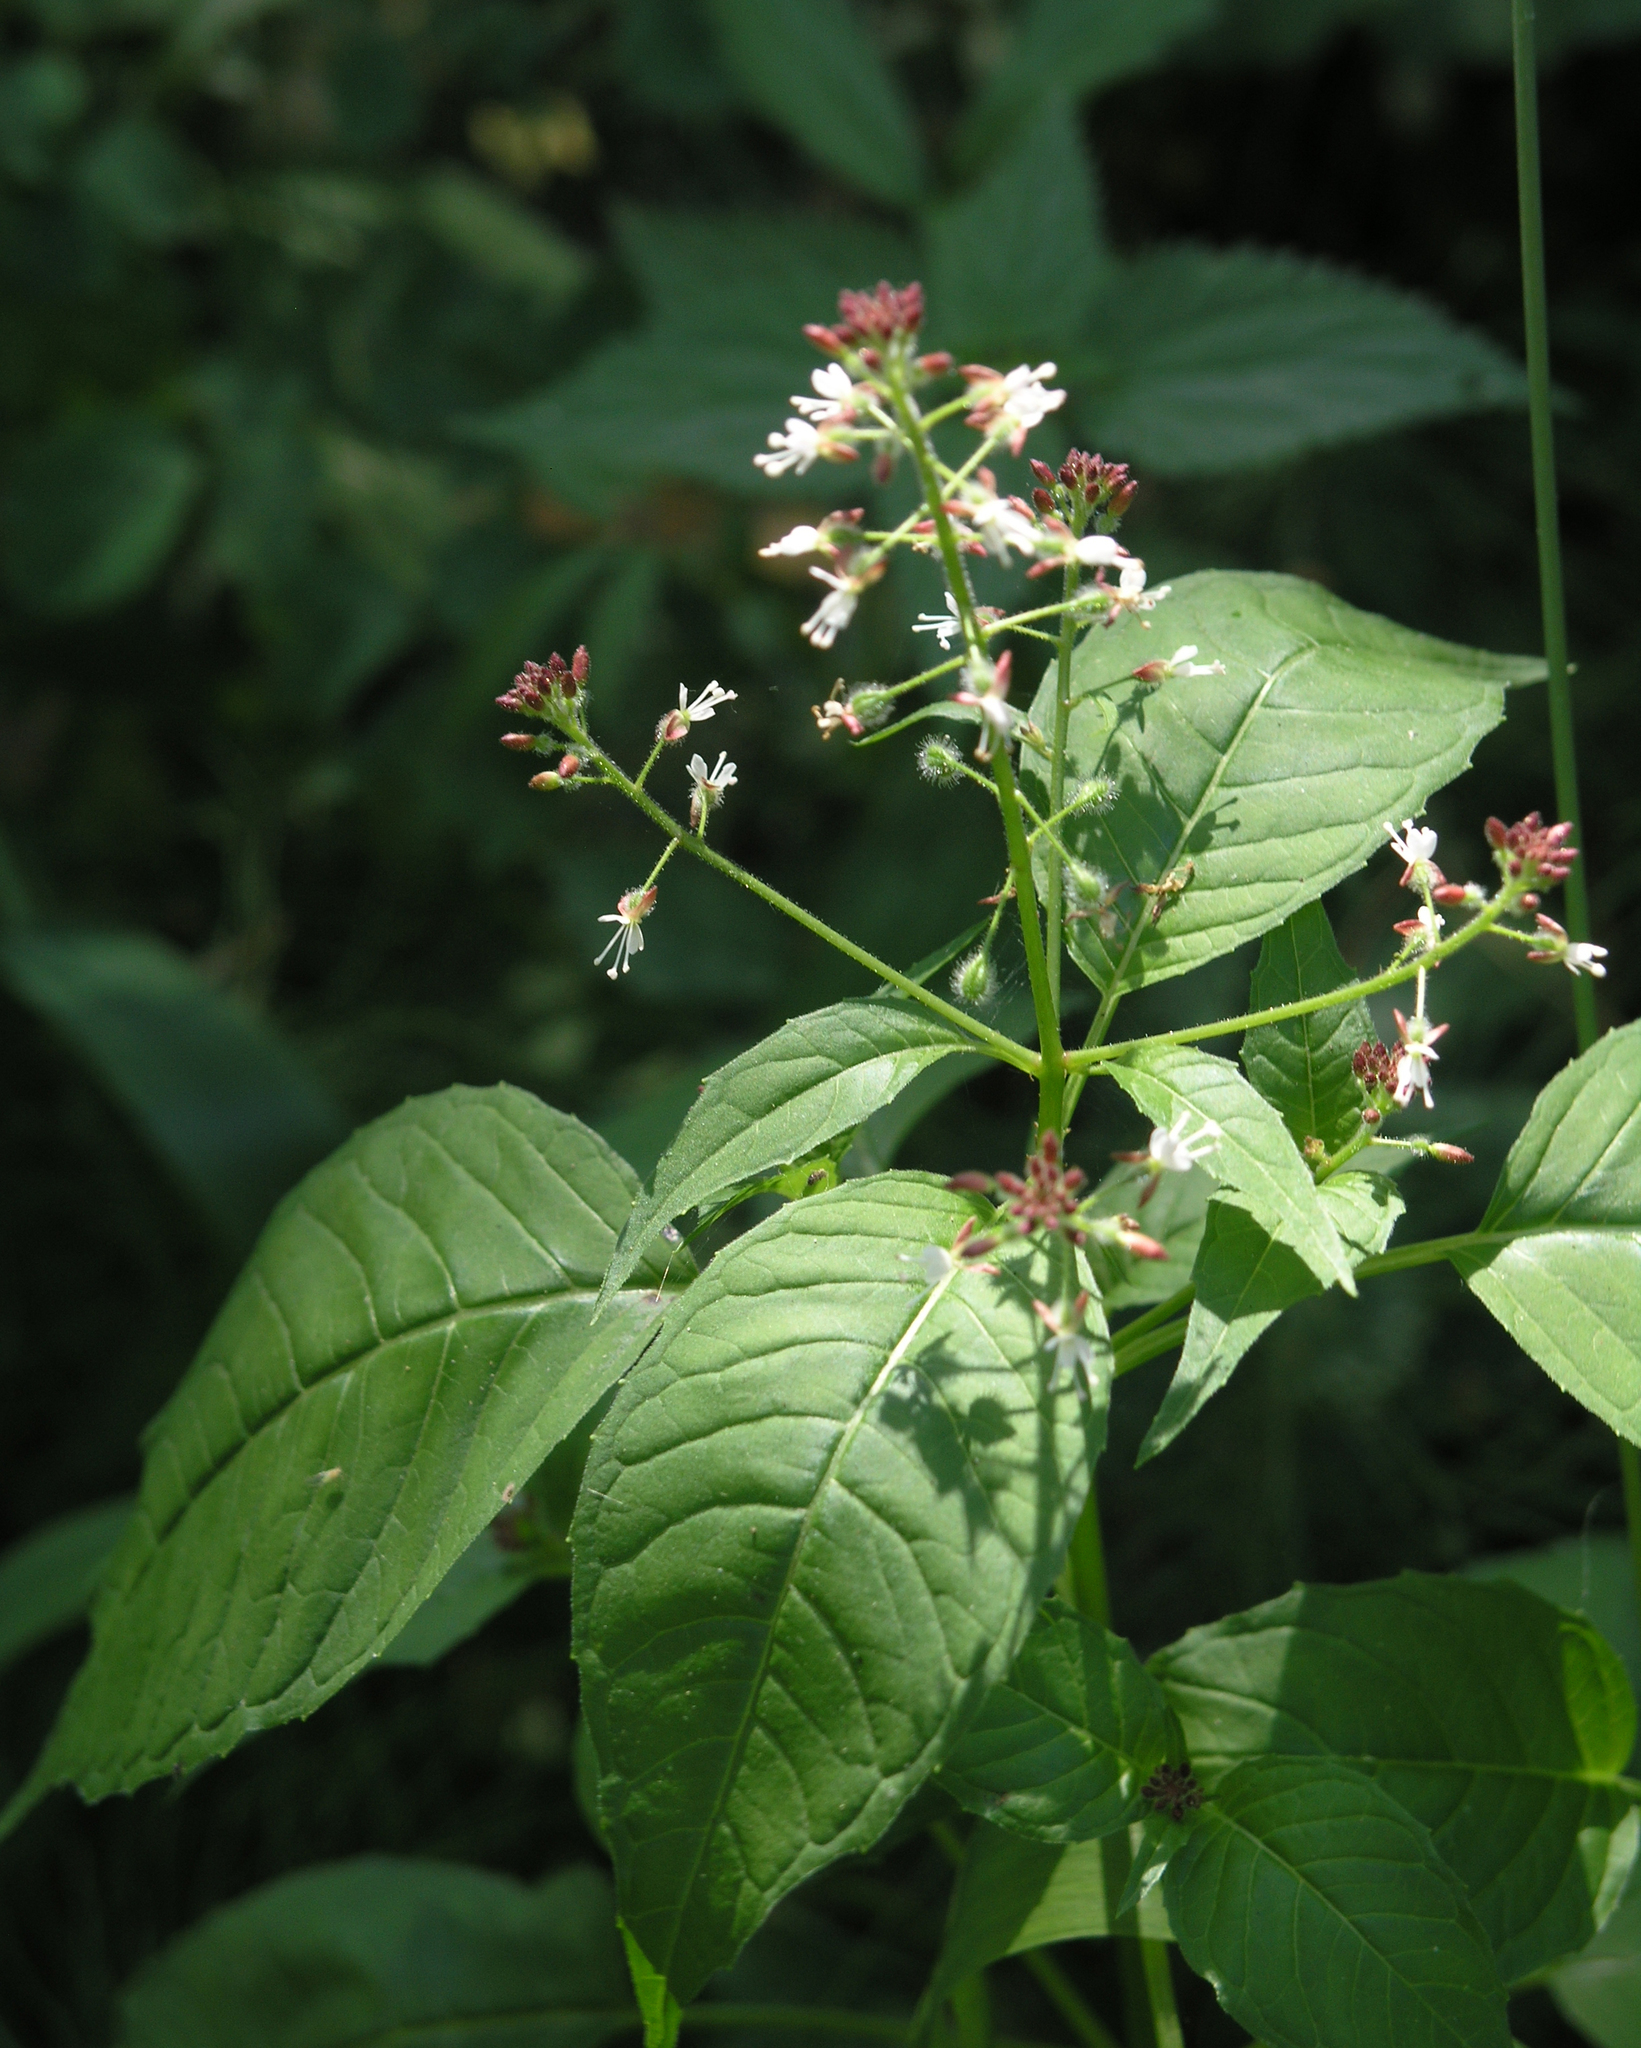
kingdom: Plantae
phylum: Tracheophyta
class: Magnoliopsida
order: Myrtales
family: Onagraceae
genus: Circaea
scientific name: Circaea lutetiana
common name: Enchanter's-nightshade
